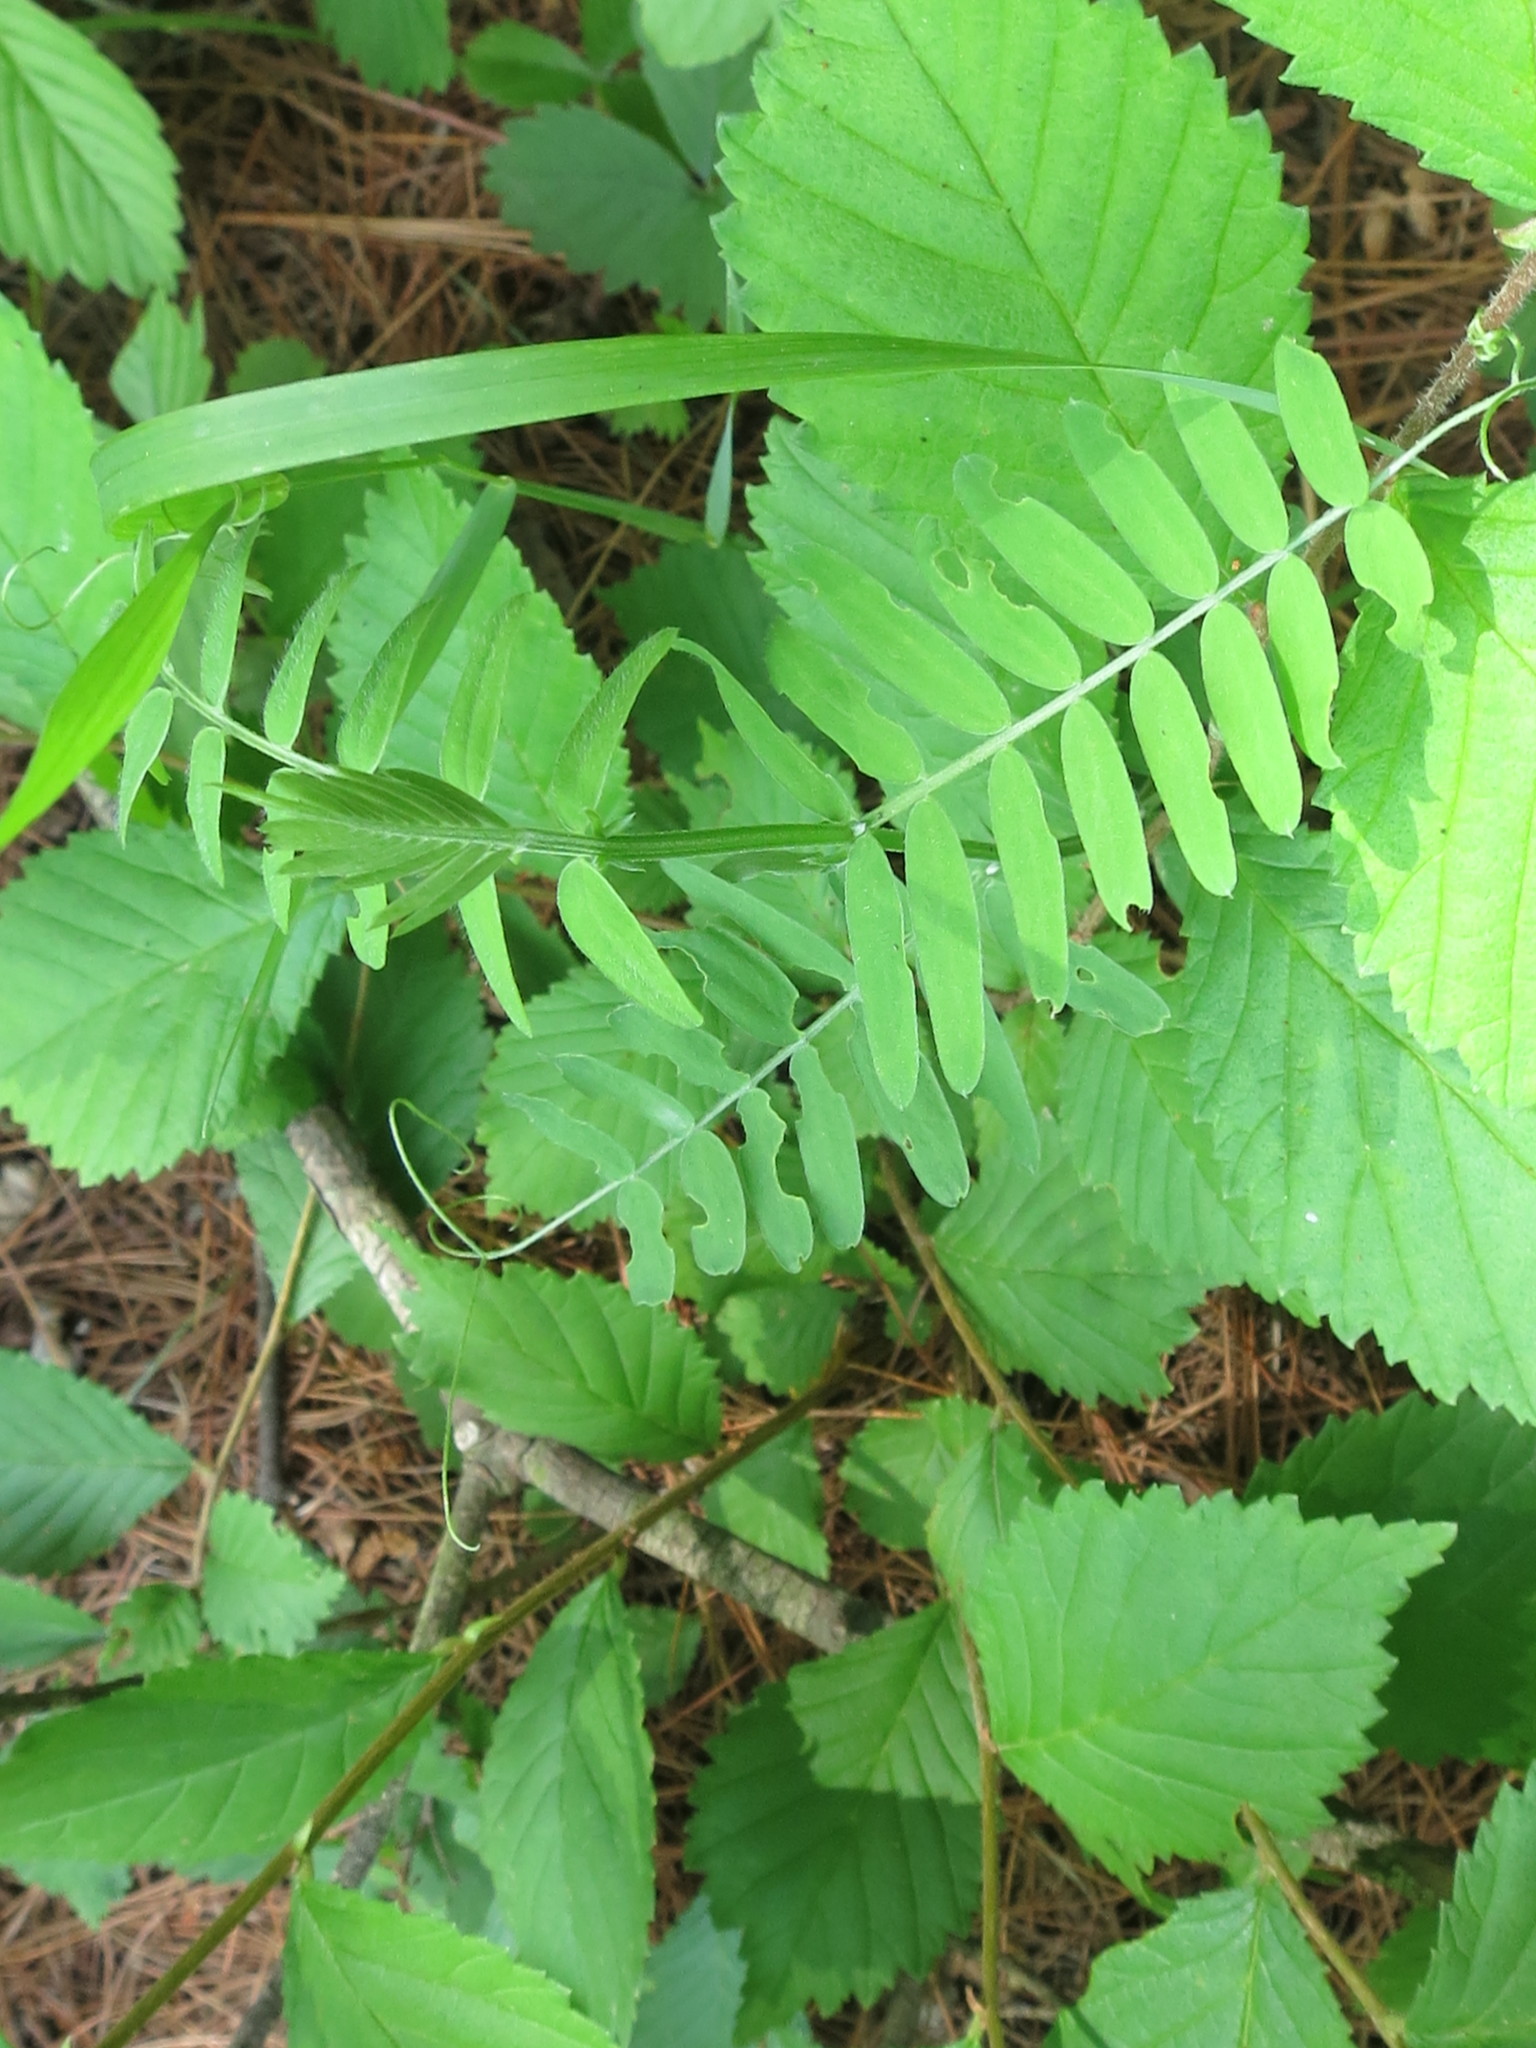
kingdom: Plantae
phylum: Tracheophyta
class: Magnoliopsida
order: Fabales
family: Fabaceae
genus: Vicia
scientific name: Vicia cracca
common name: Bird vetch
